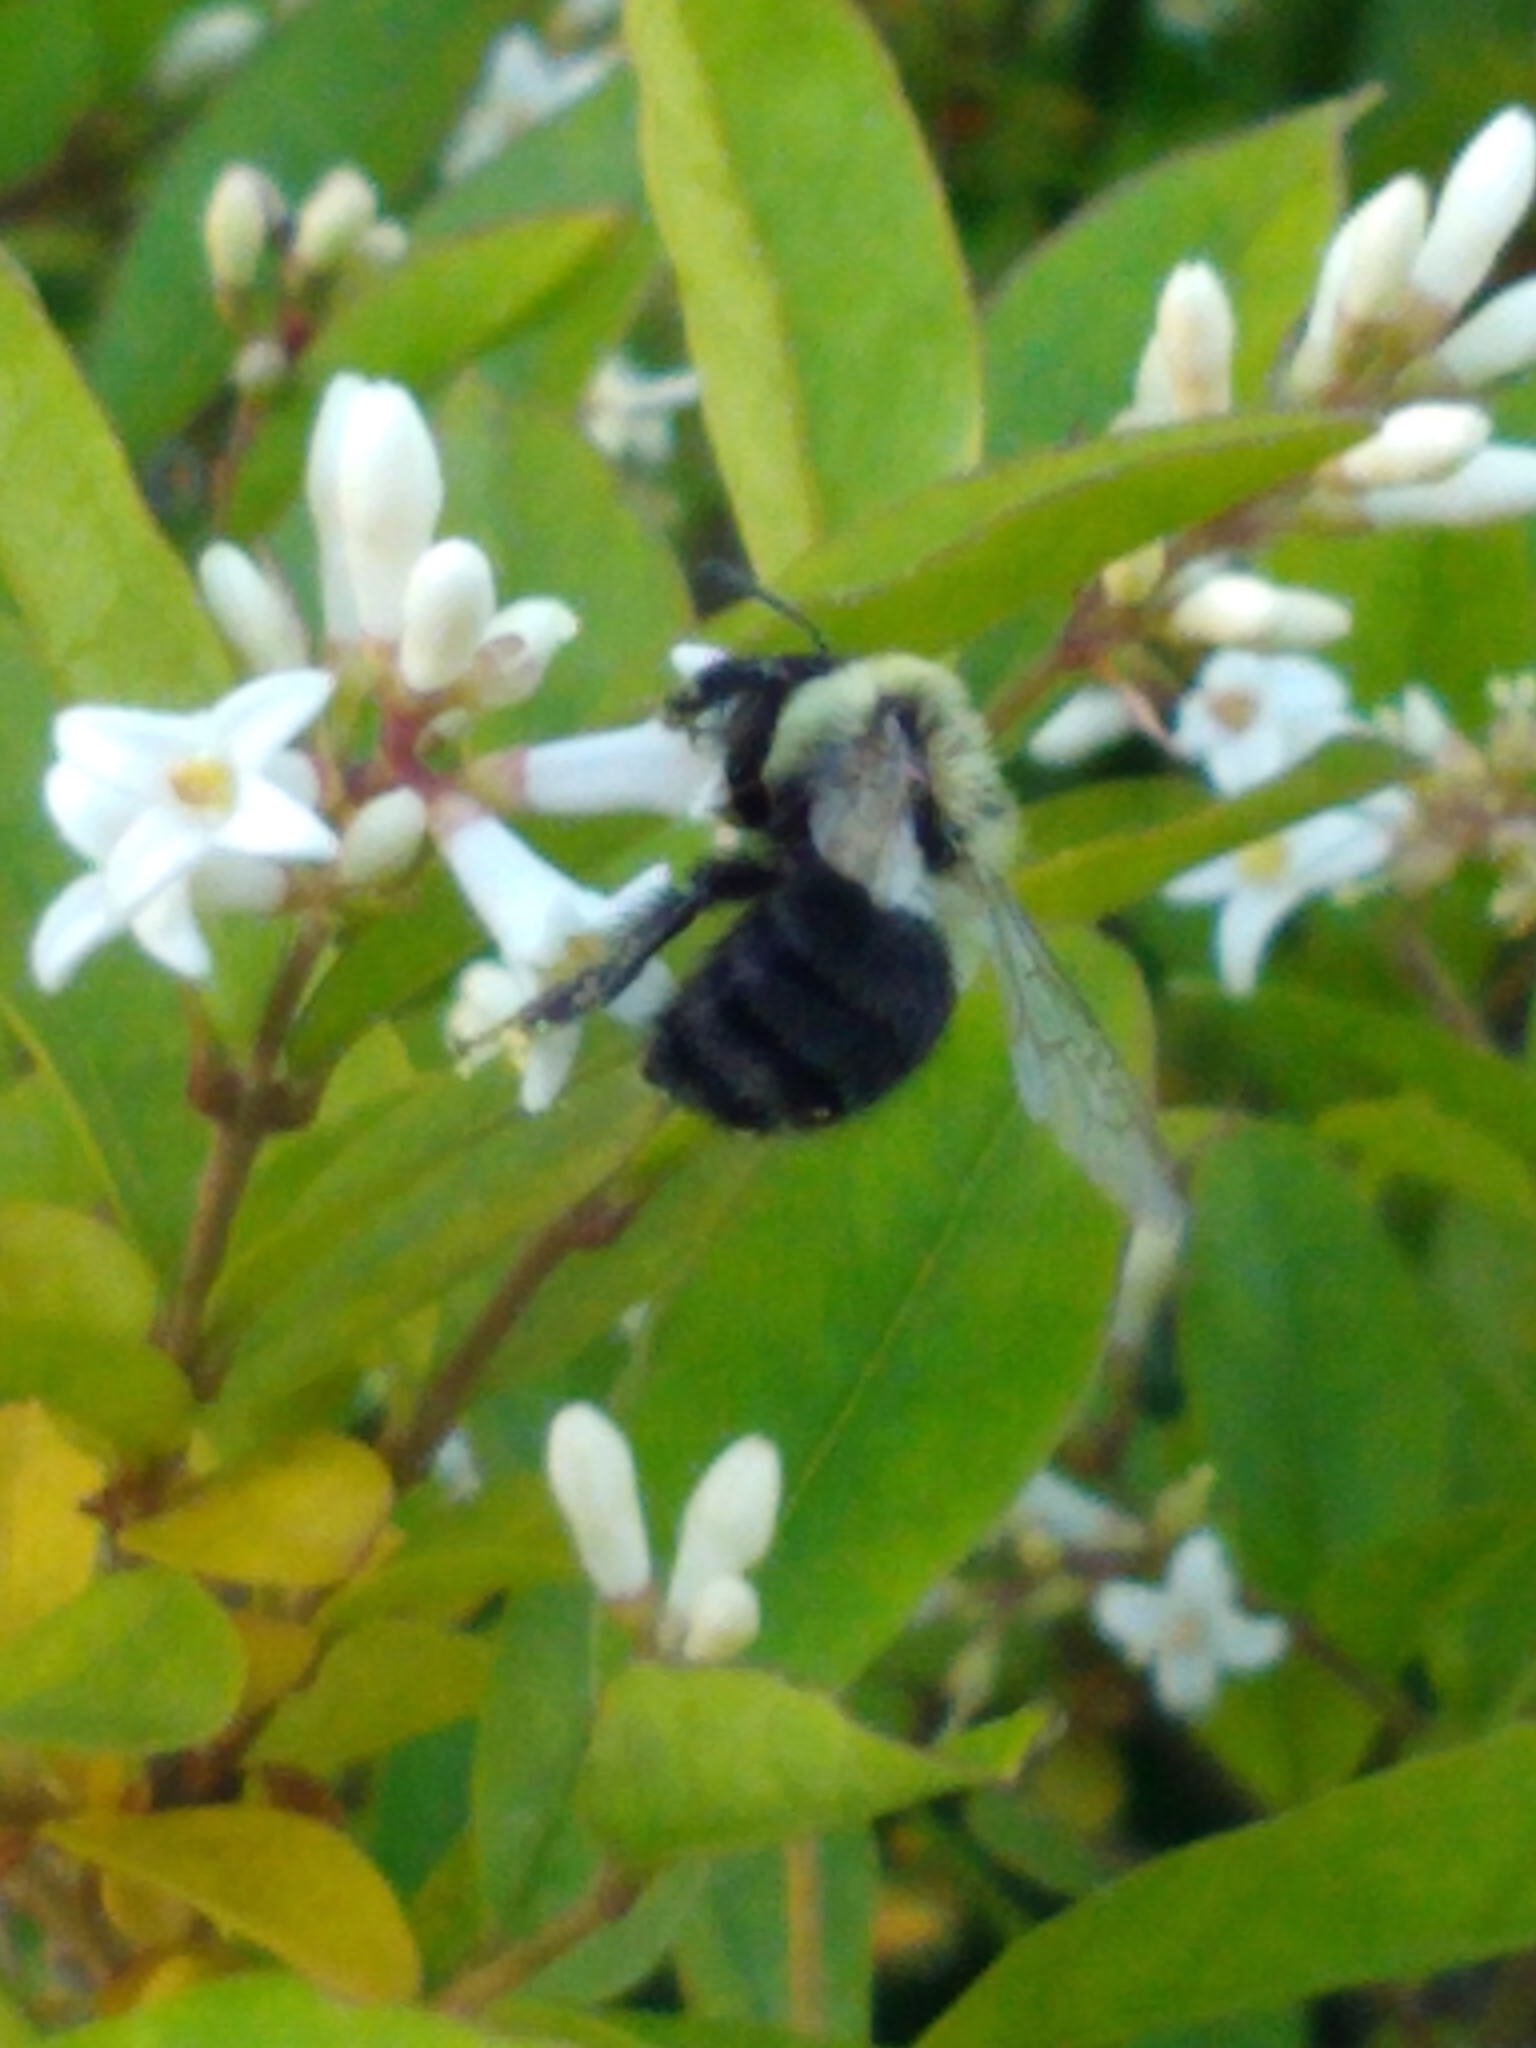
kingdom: Animalia
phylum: Arthropoda
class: Insecta
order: Hymenoptera
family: Apidae
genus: Bombus
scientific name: Bombus impatiens
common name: Common eastern bumble bee
